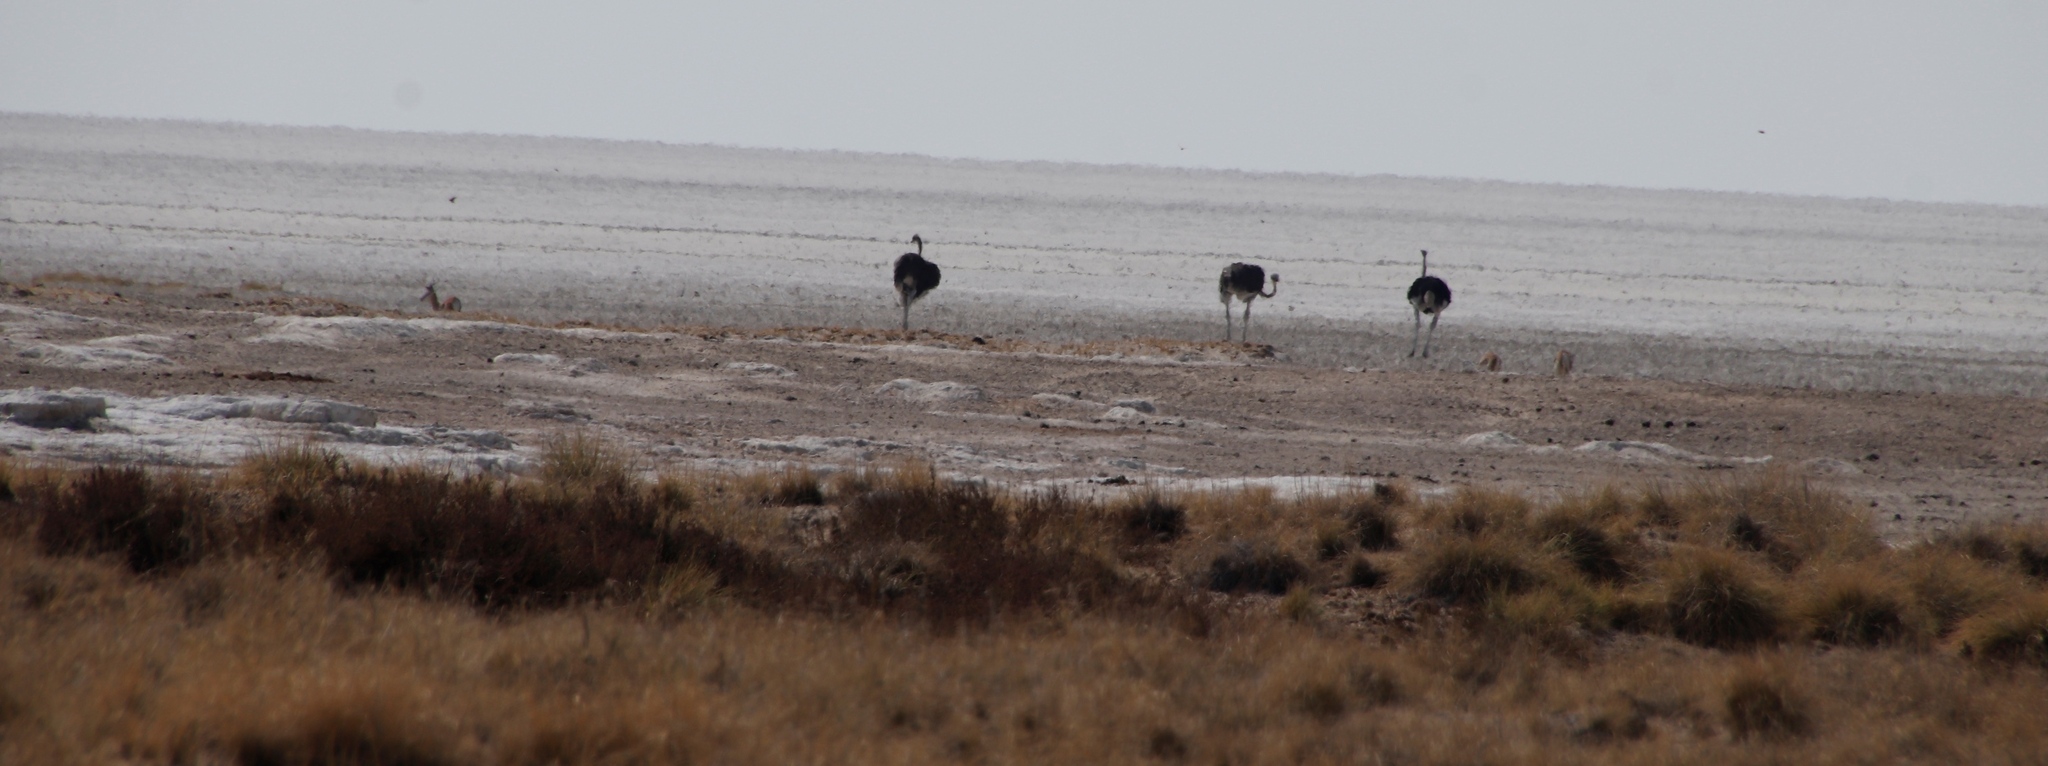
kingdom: Animalia
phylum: Chordata
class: Aves
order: Struthioniformes
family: Struthionidae
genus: Struthio
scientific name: Struthio camelus
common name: Common ostrich
